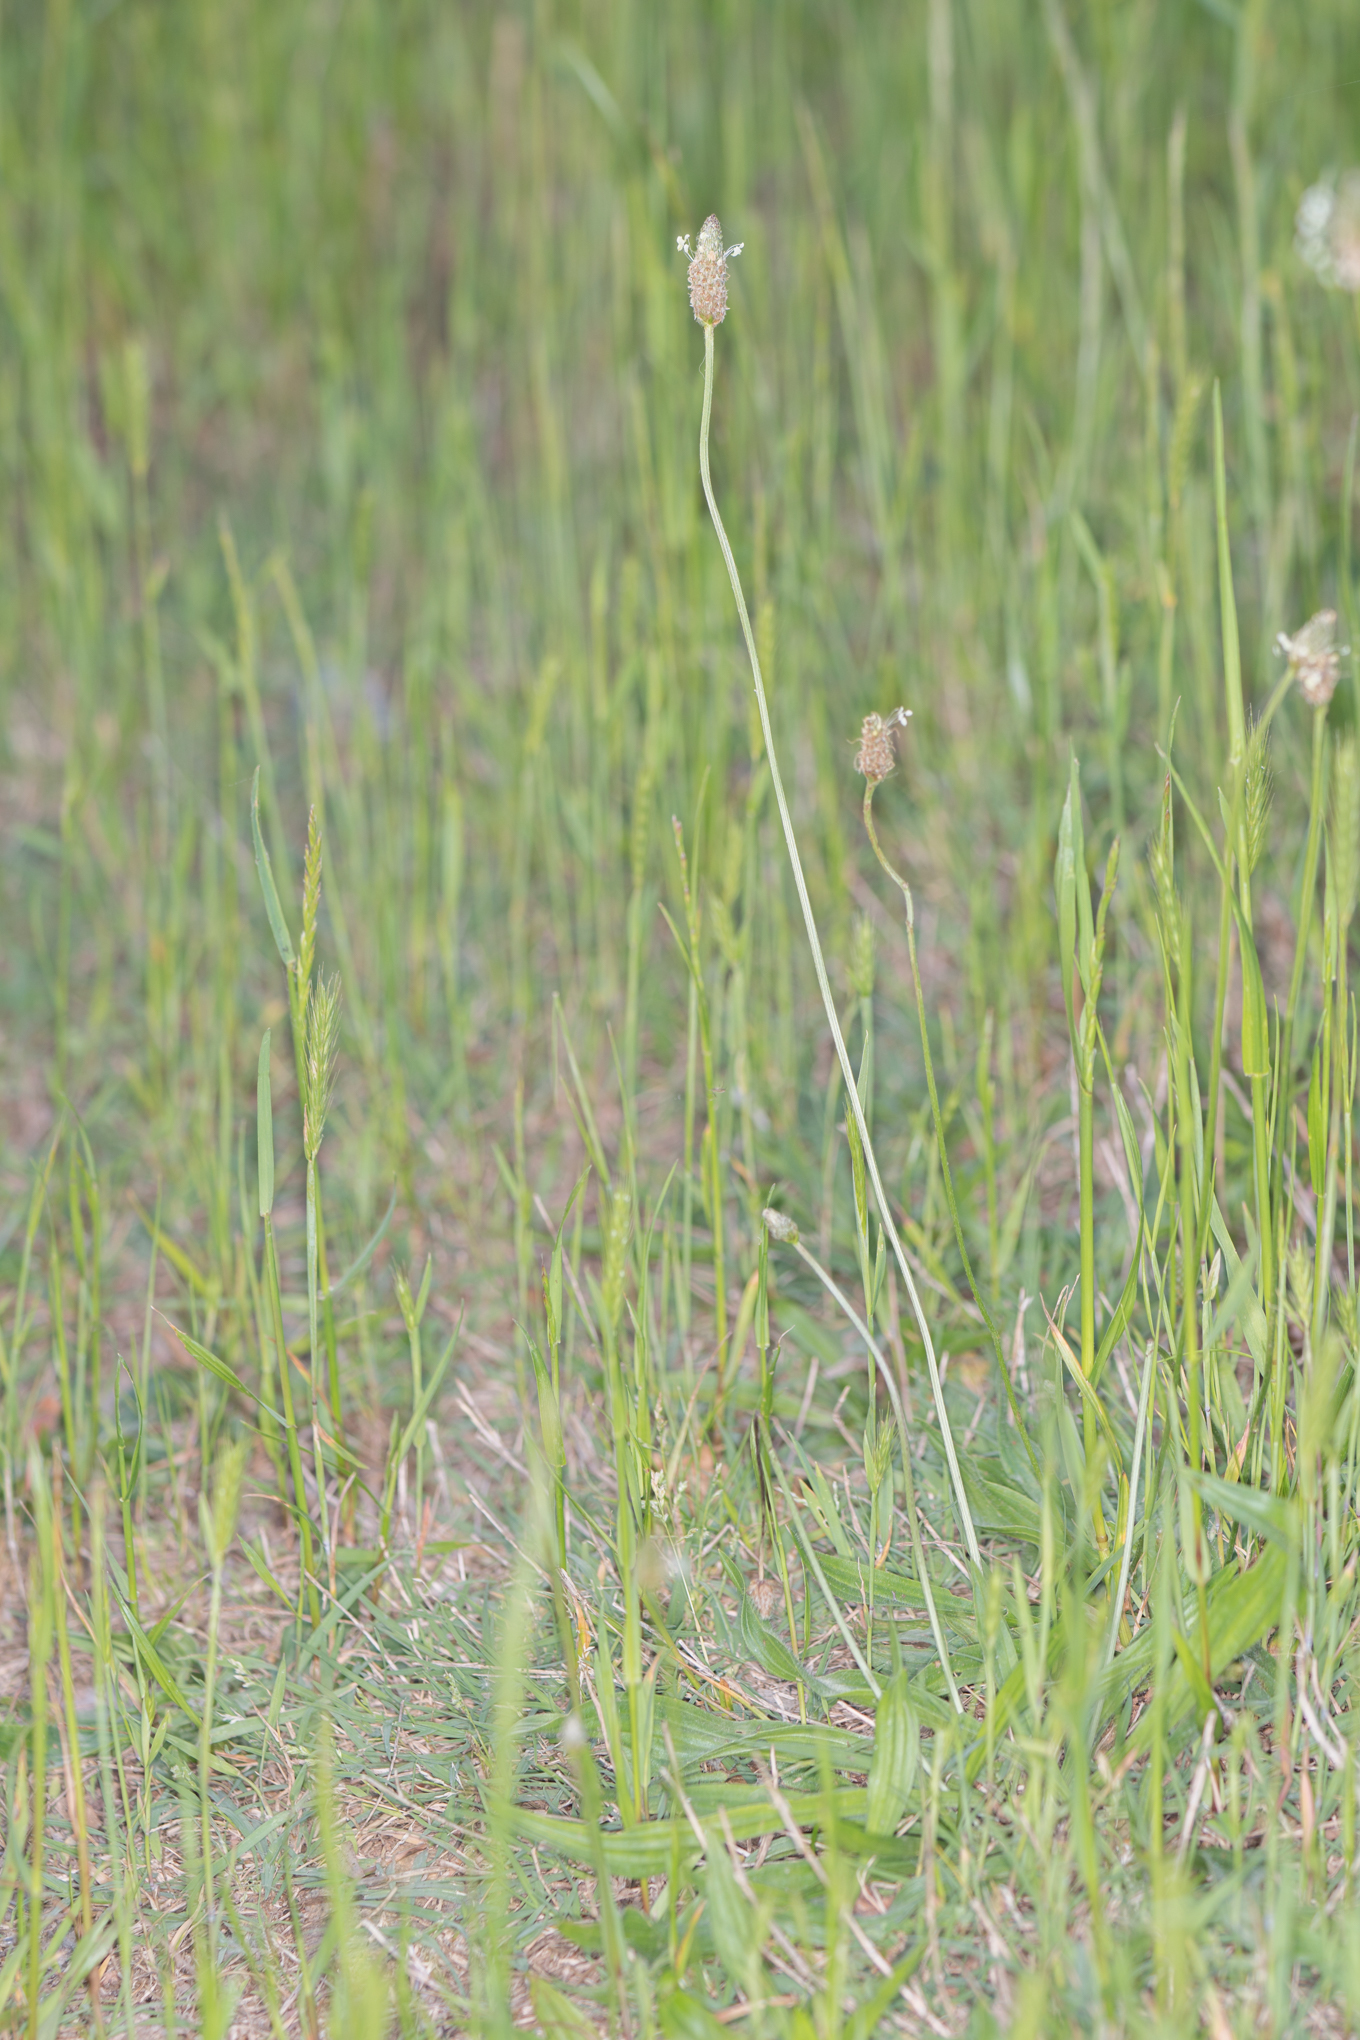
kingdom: Plantae
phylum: Tracheophyta
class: Magnoliopsida
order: Lamiales
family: Plantaginaceae
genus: Plantago
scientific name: Plantago lanceolata
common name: Ribwort plantain
